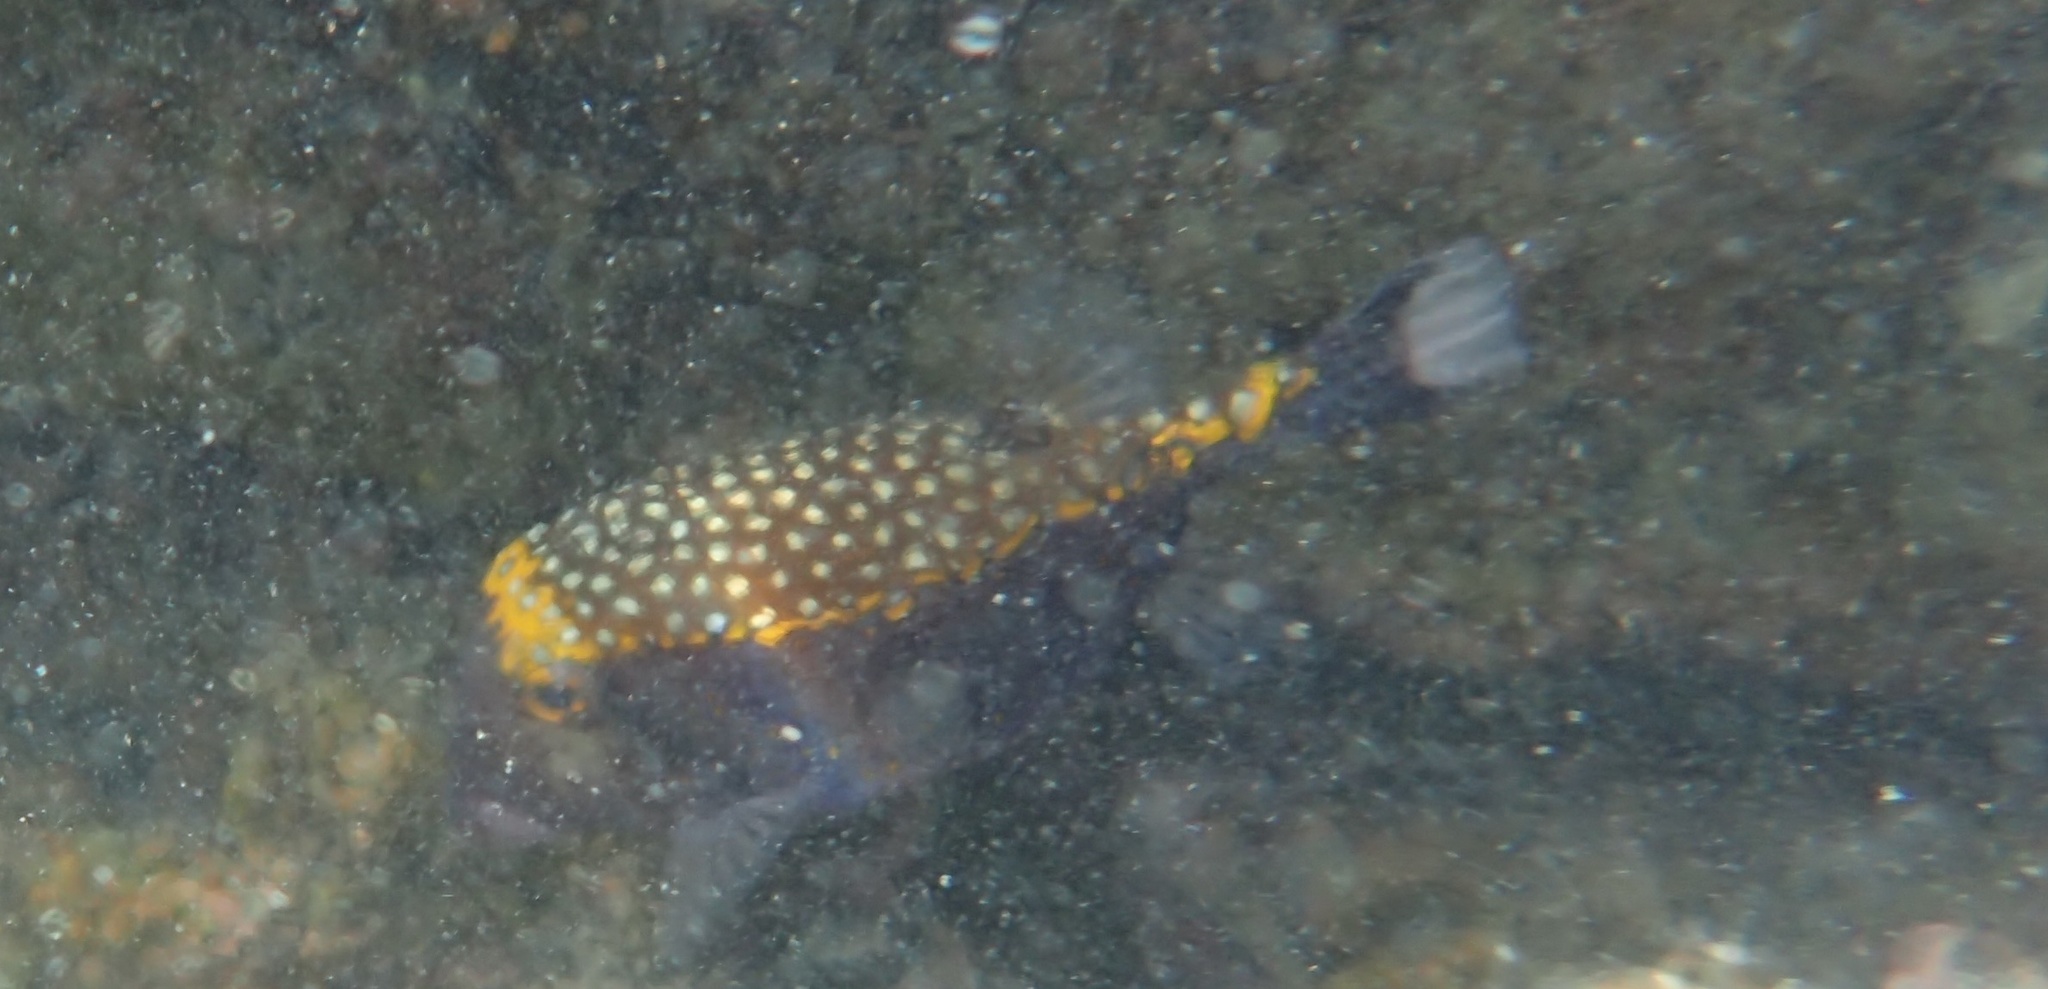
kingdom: Animalia
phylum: Chordata
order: Tetraodontiformes
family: Ostraciidae
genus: Ostracion
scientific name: Ostracion meleagris
